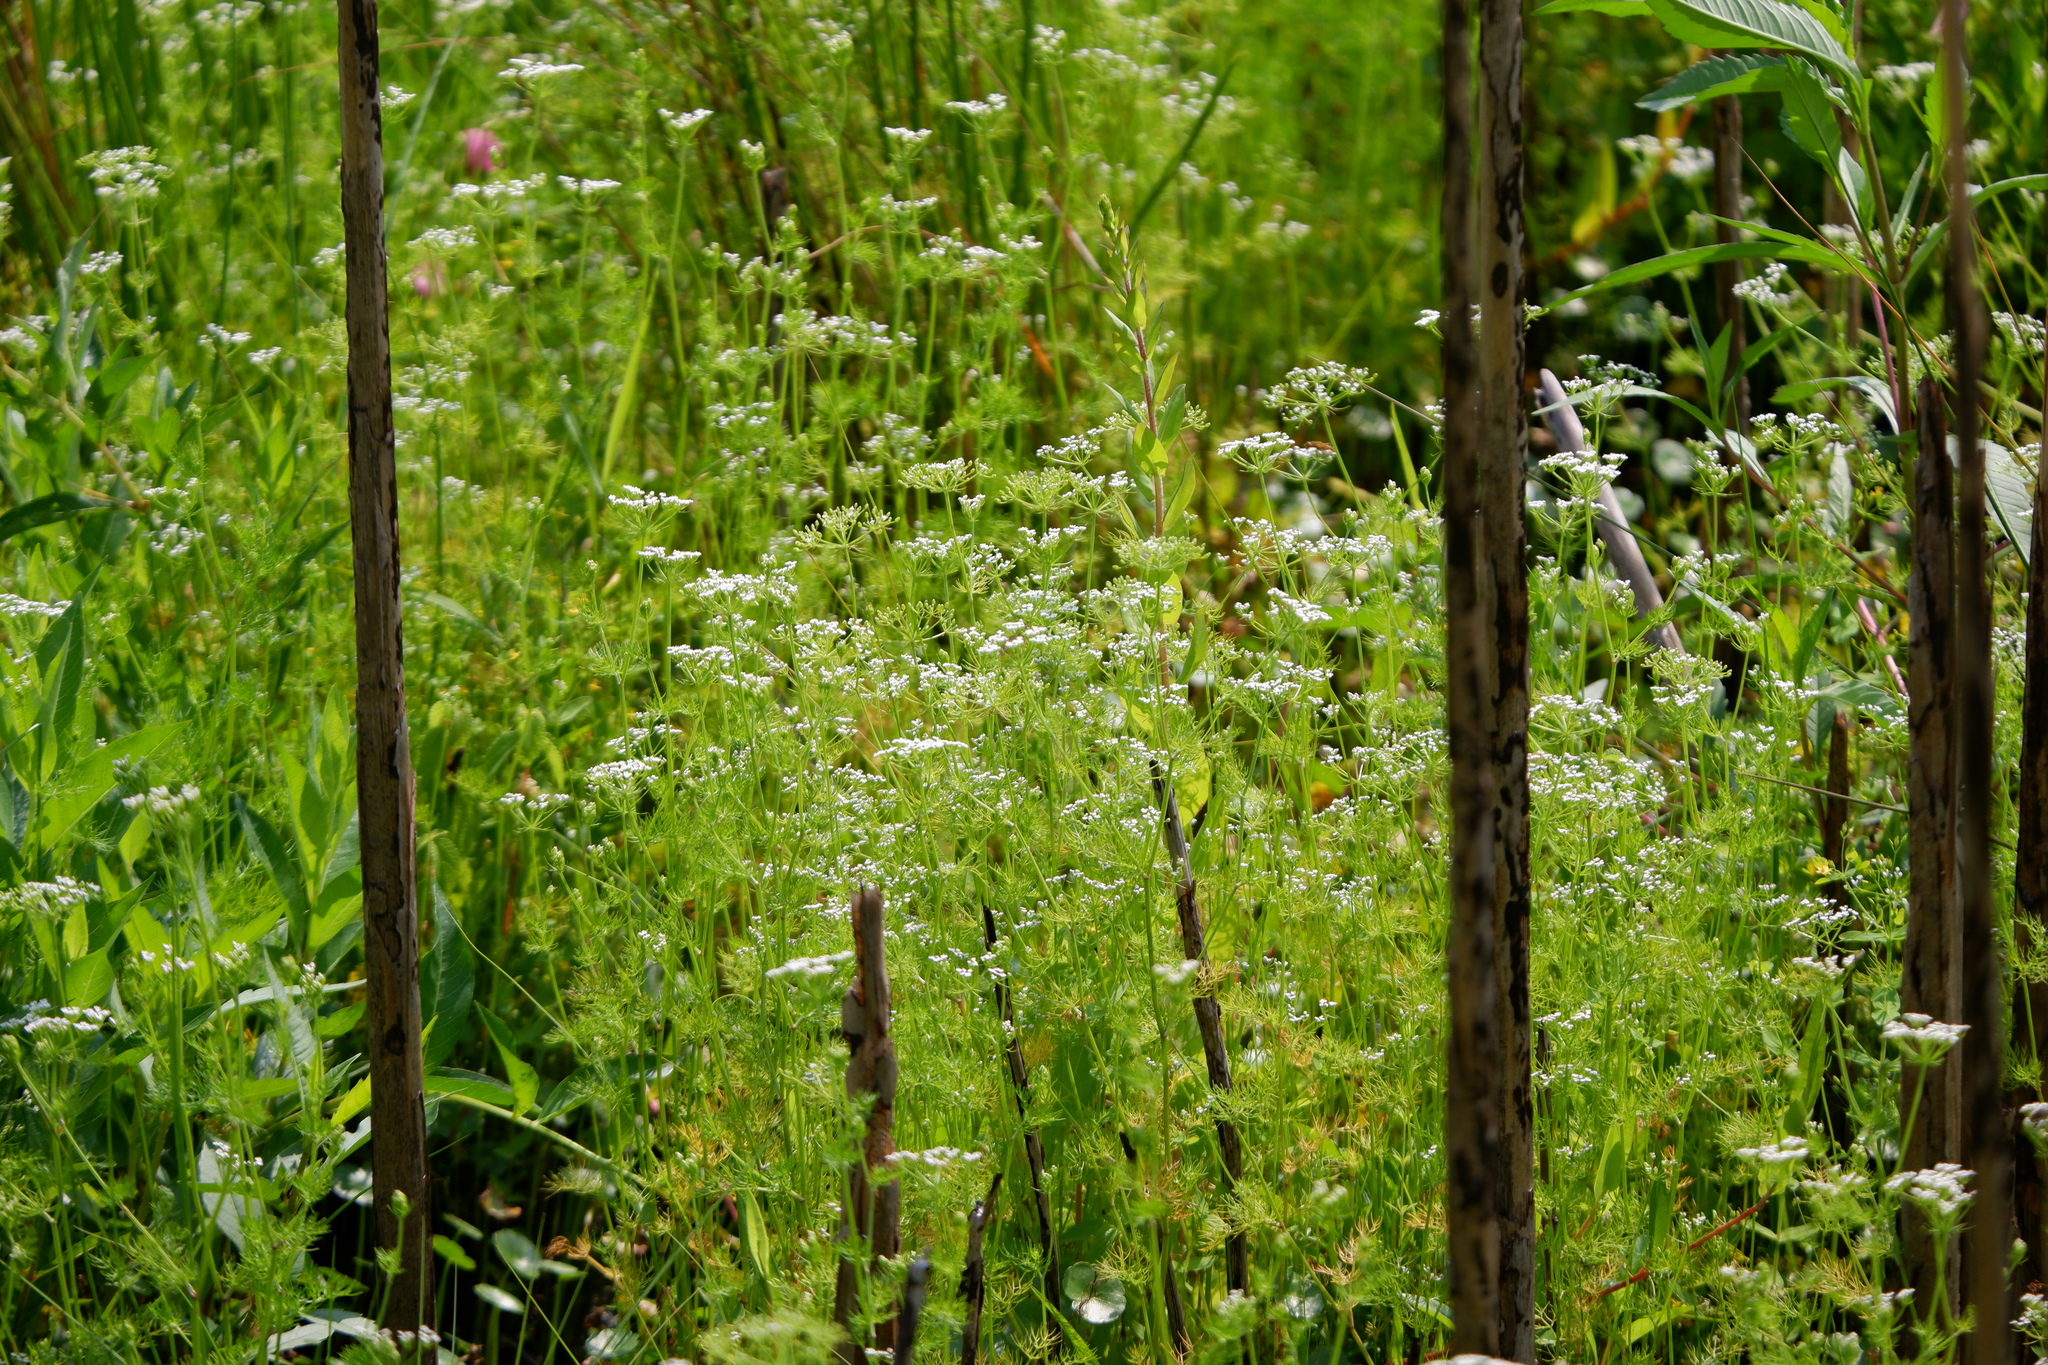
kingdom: Plantae
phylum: Tracheophyta
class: Magnoliopsida
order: Apiales
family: Apiaceae
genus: Ptilimnium
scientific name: Ptilimnium capillaceum
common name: Herbwilliam
